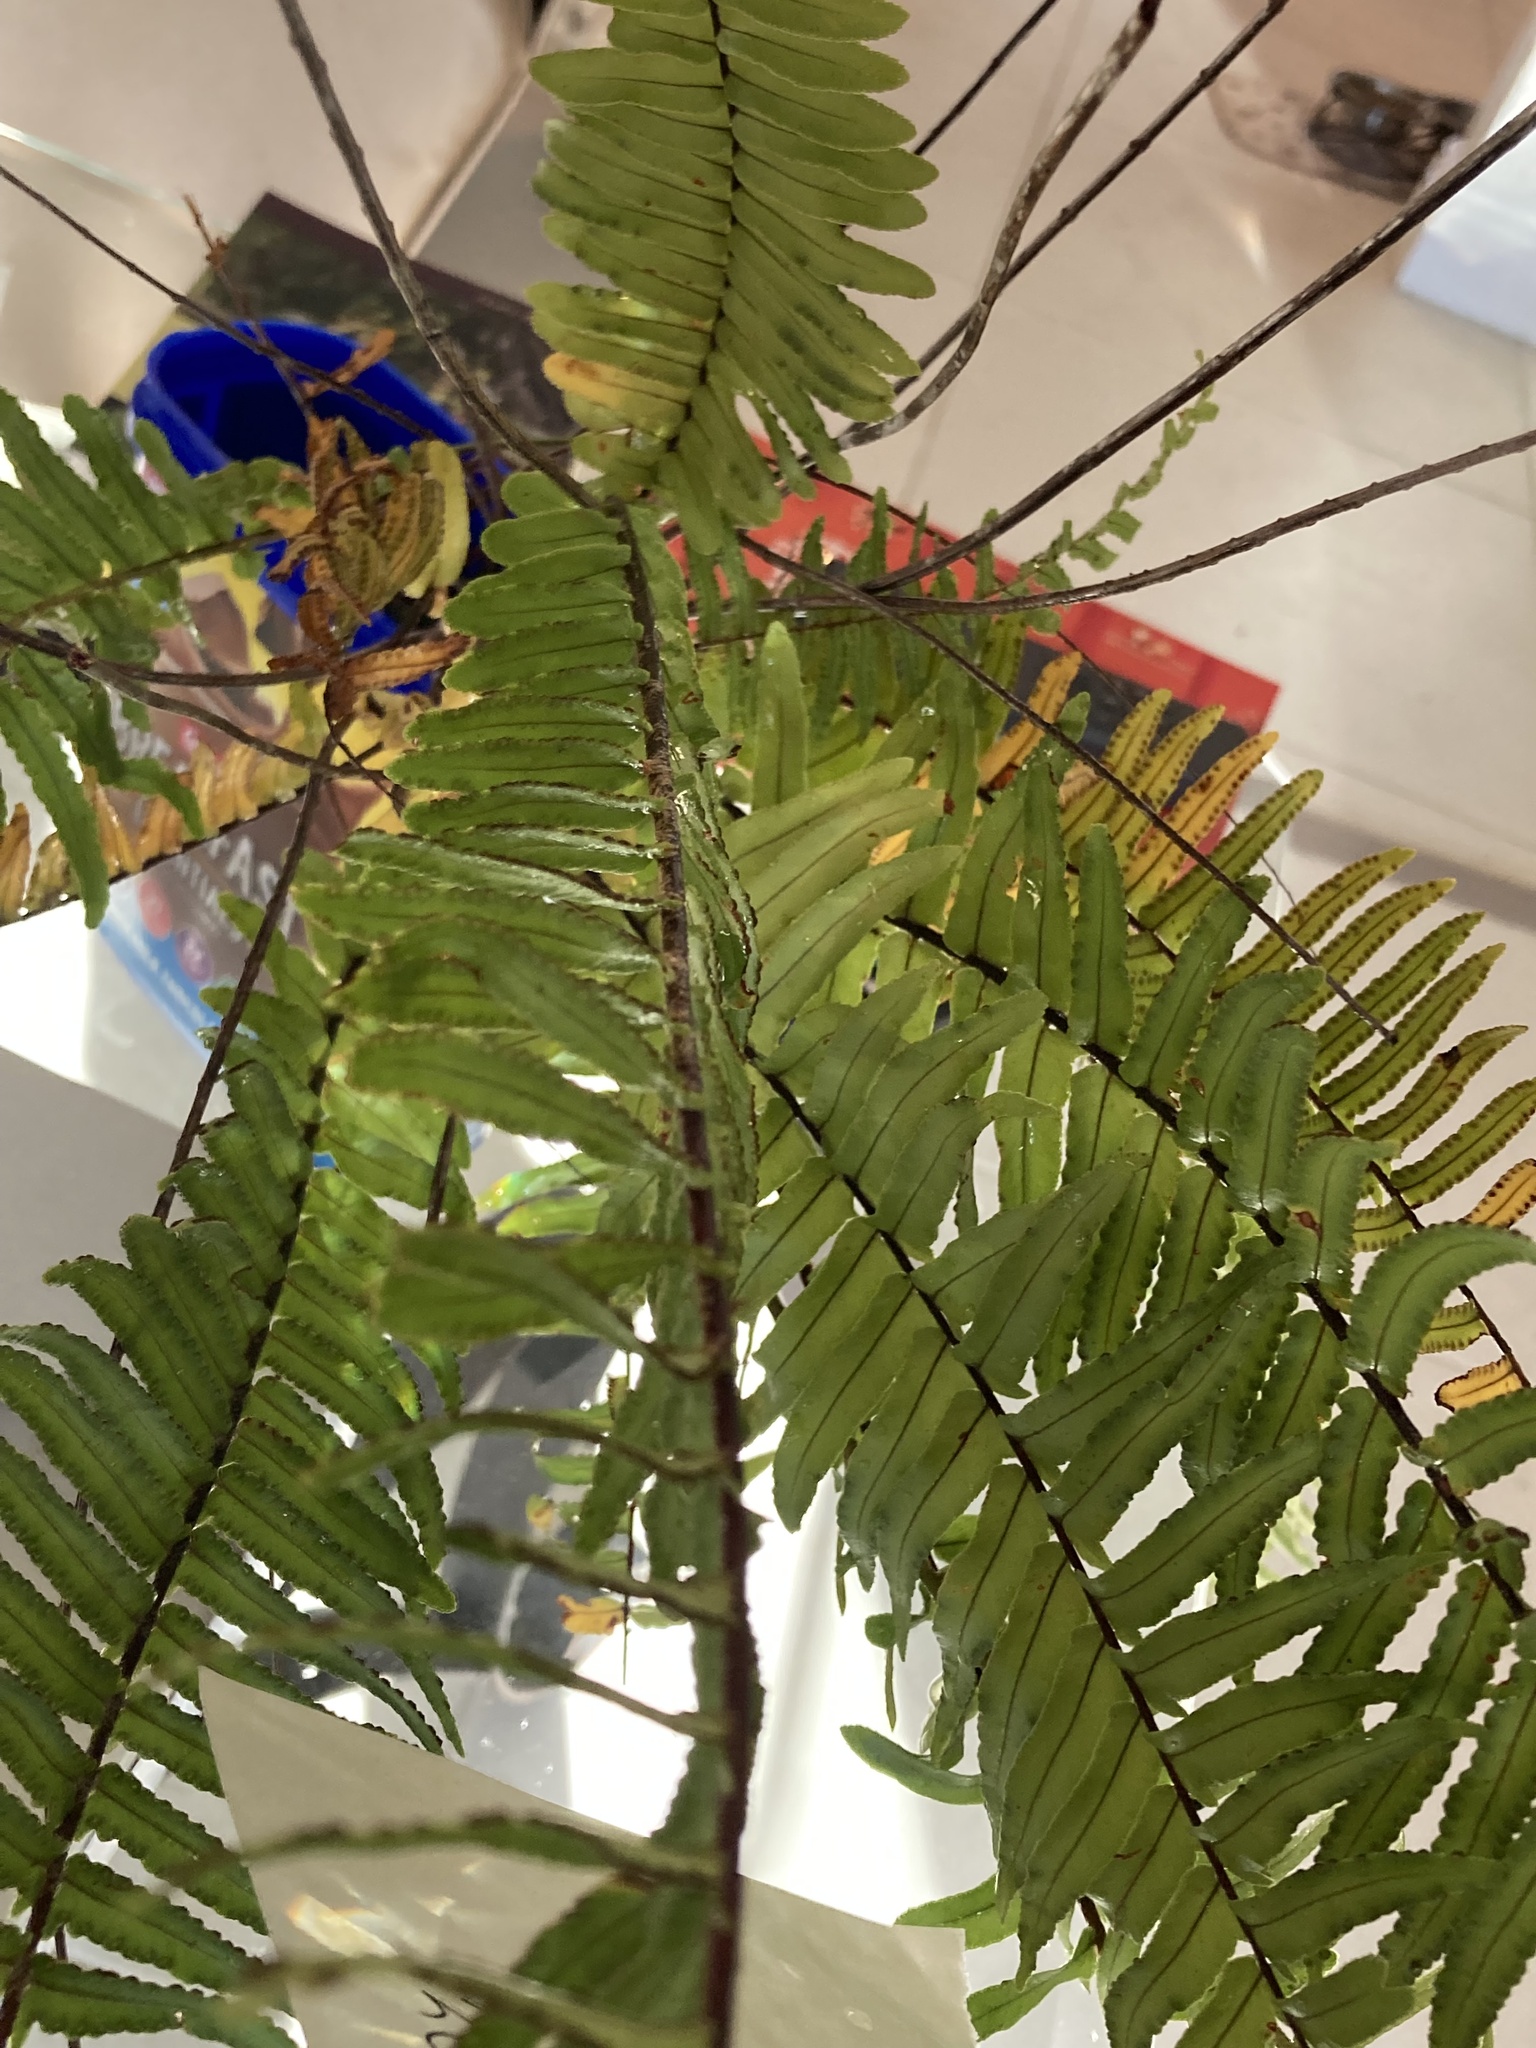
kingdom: Plantae
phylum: Tracheophyta
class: Polypodiopsida
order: Polypodiales
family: Nephrolepidaceae
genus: Nephrolepis
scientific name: Nephrolepis exaltata
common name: Sword fern
